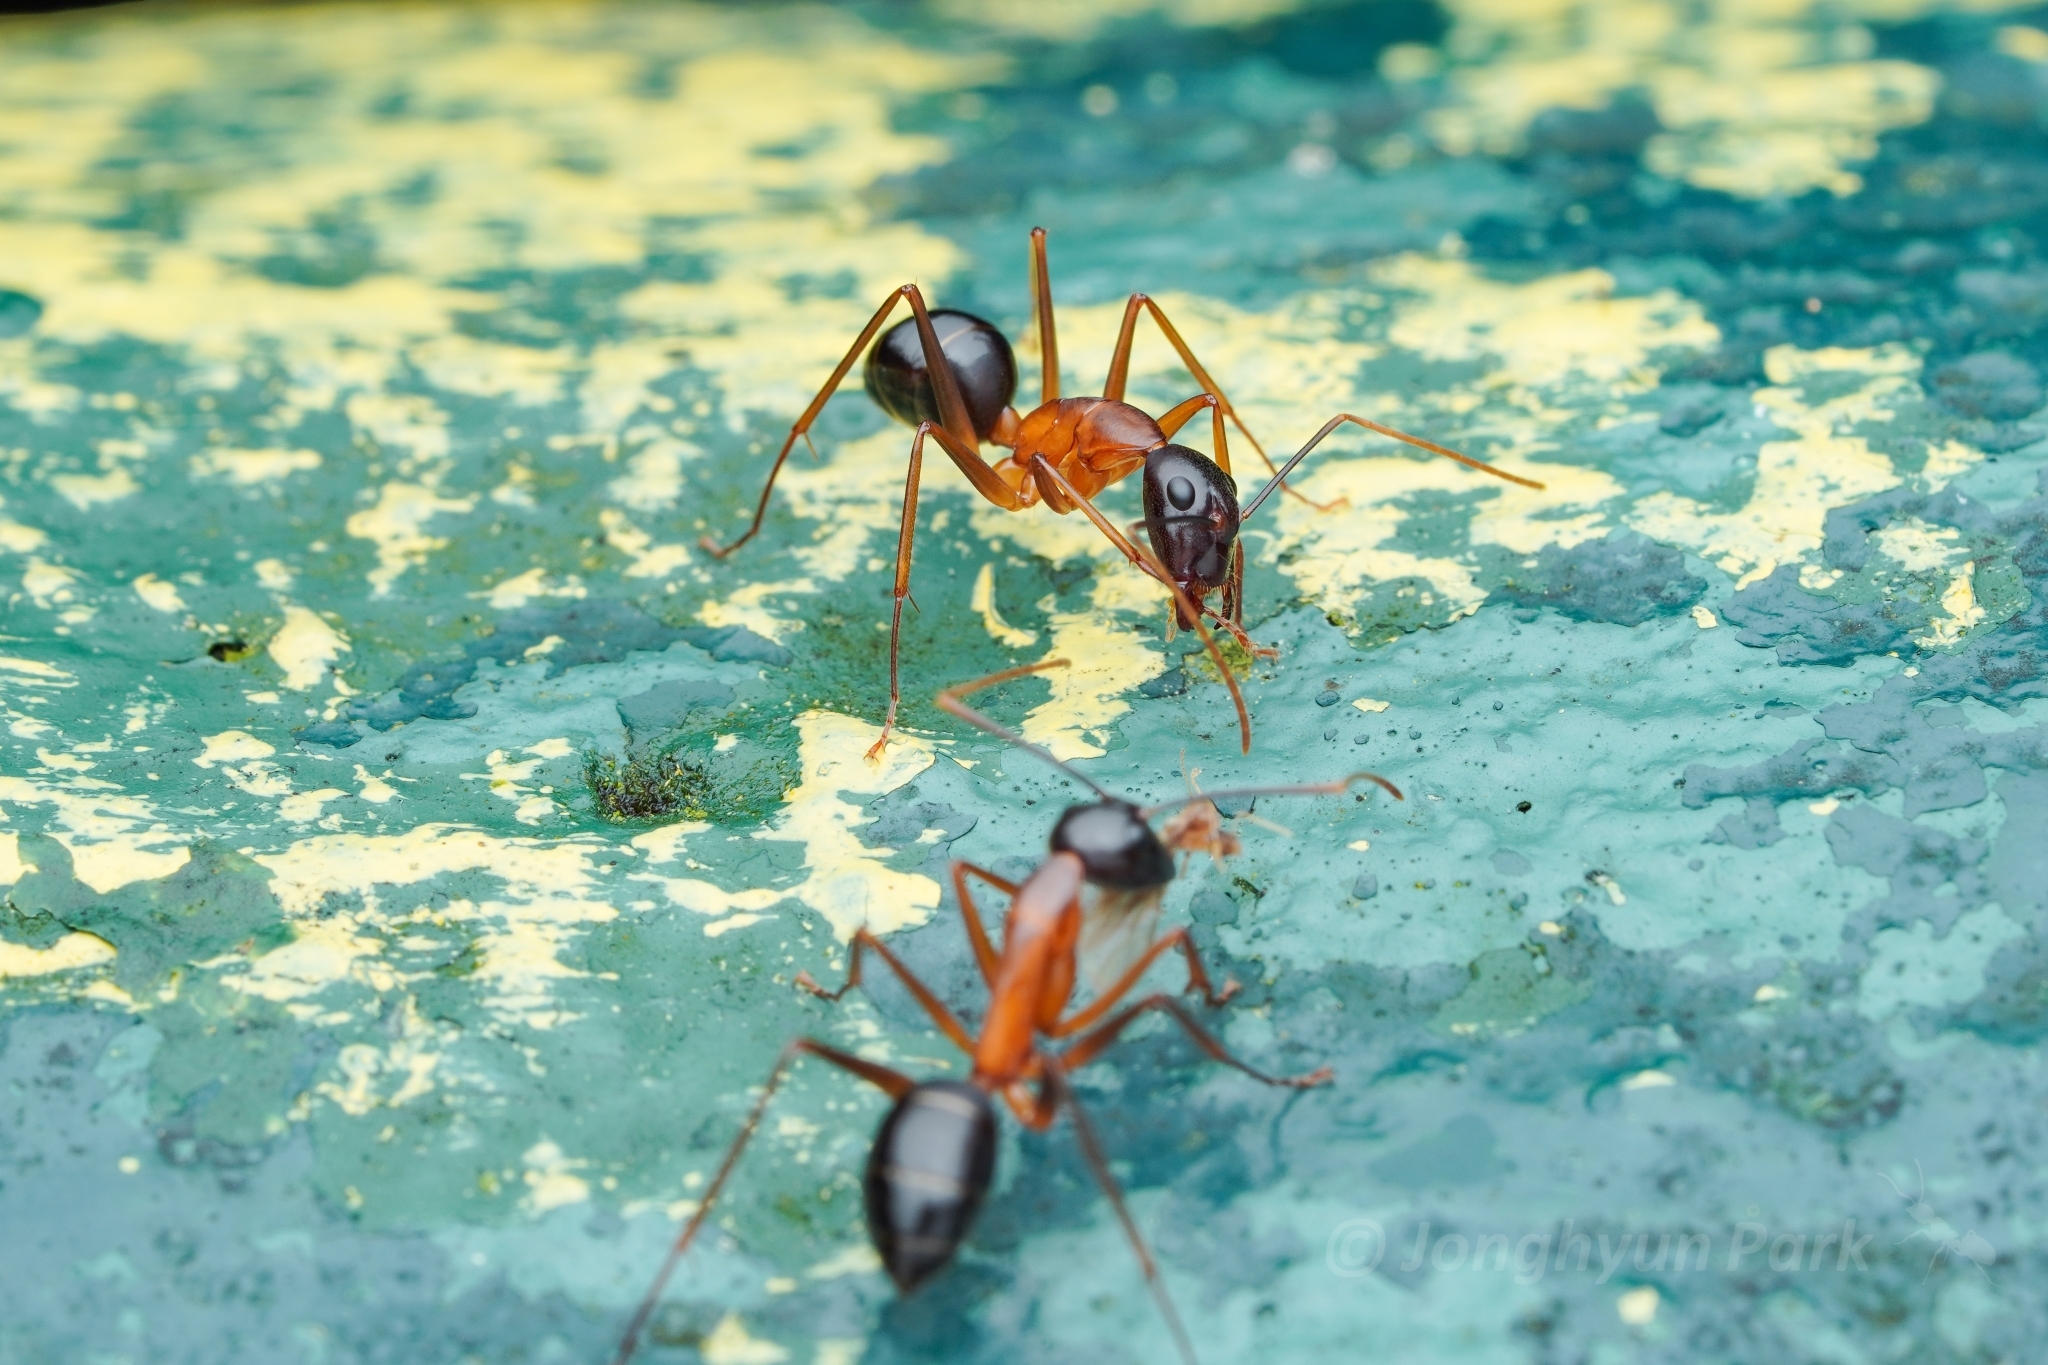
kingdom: Animalia
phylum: Arthropoda
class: Insecta
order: Hymenoptera
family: Formicidae
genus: Camponotus
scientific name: Camponotus festinus
